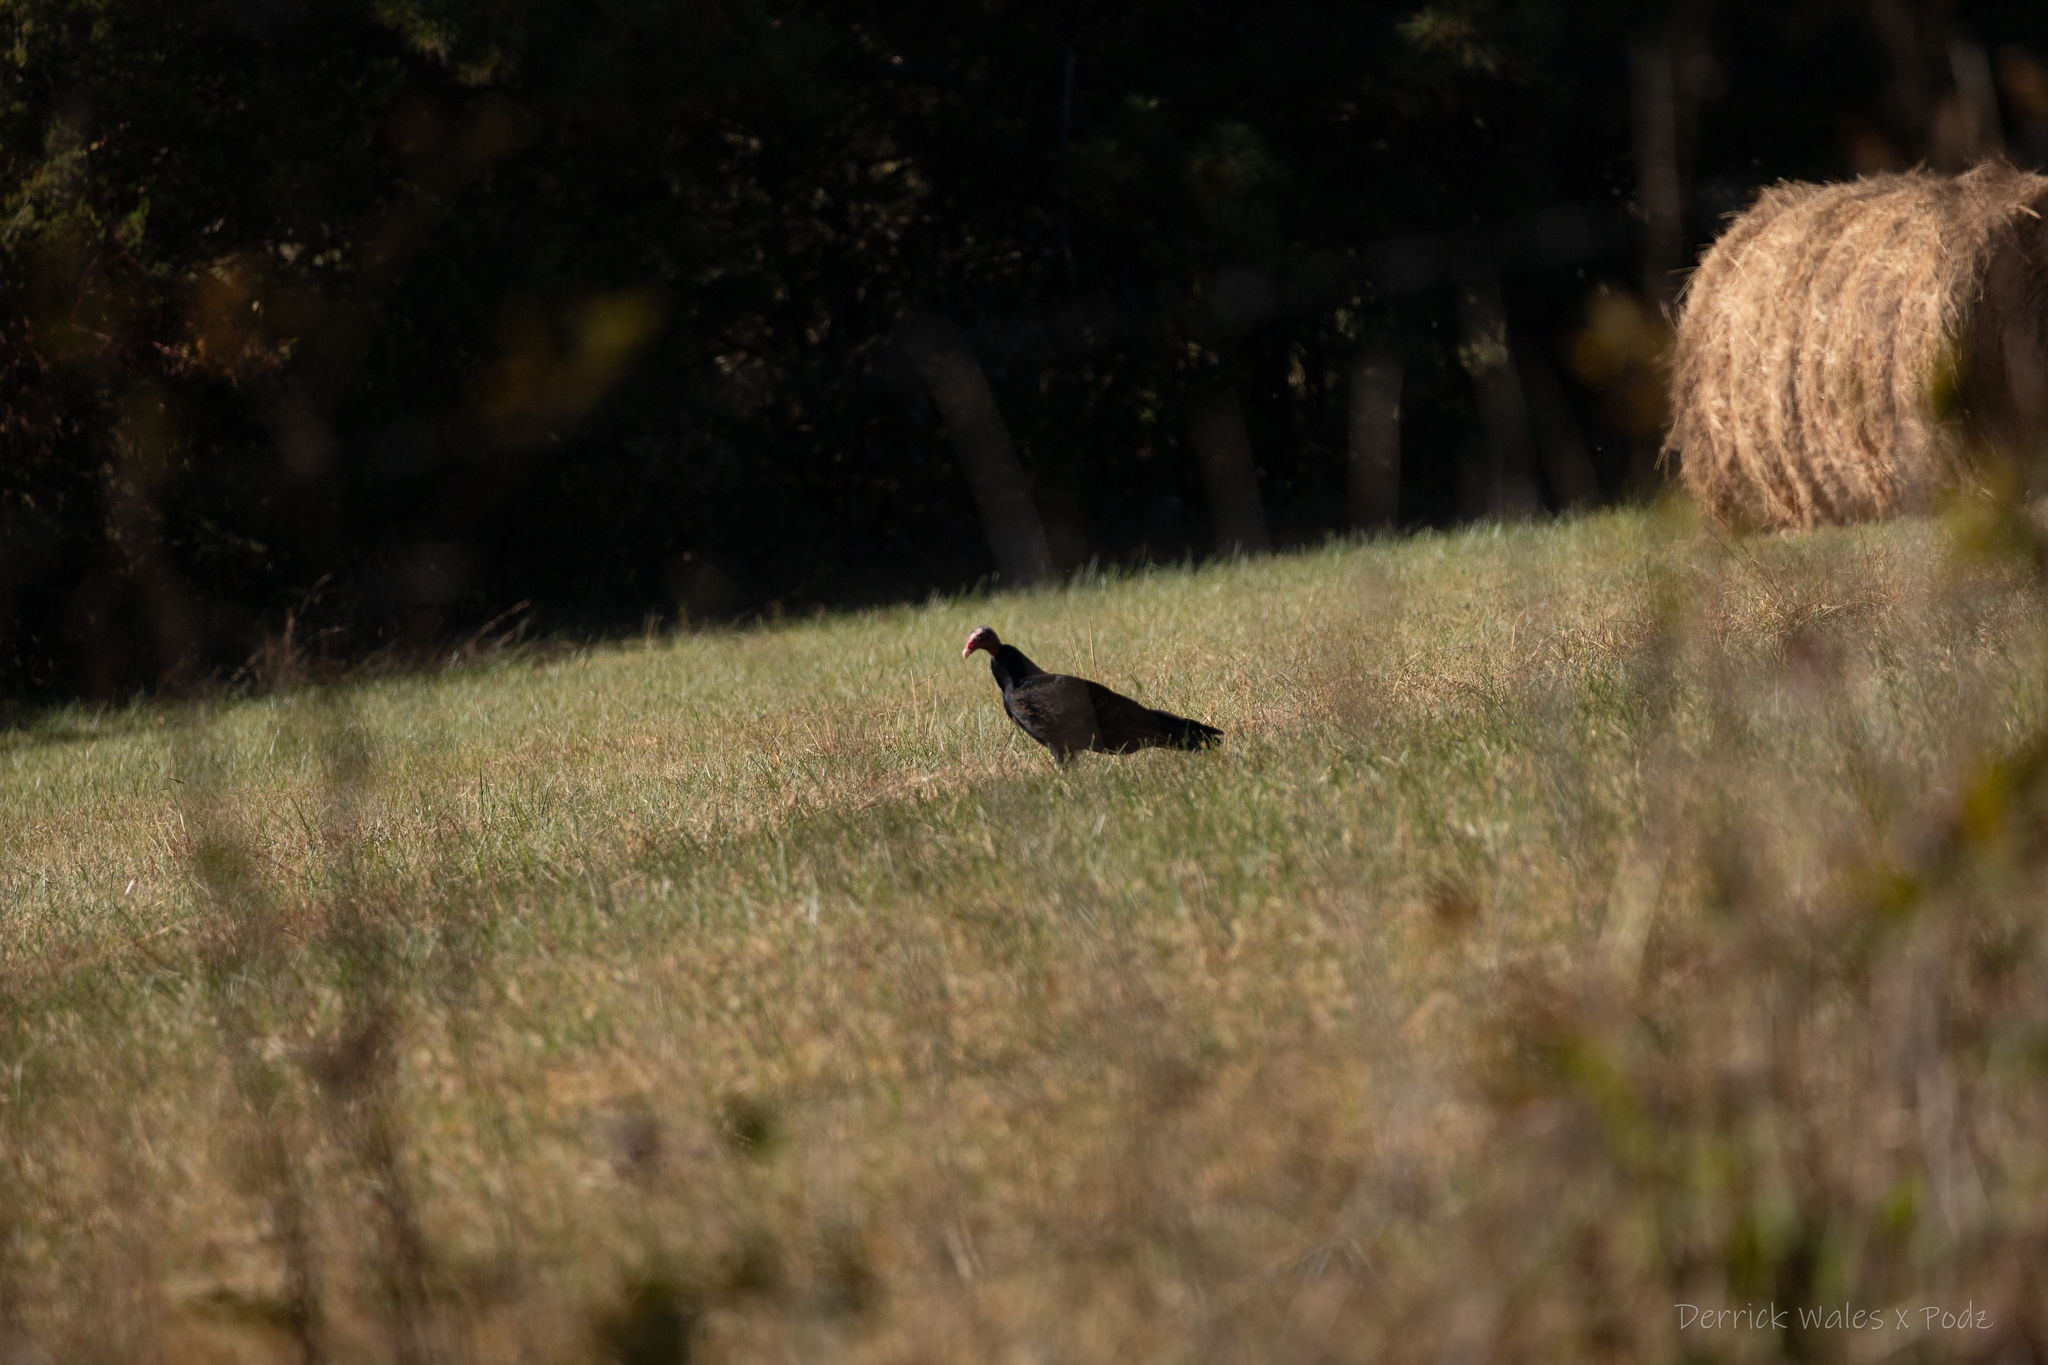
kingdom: Animalia
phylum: Chordata
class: Aves
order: Accipitriformes
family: Cathartidae
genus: Cathartes
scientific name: Cathartes aura
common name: Turkey vulture
